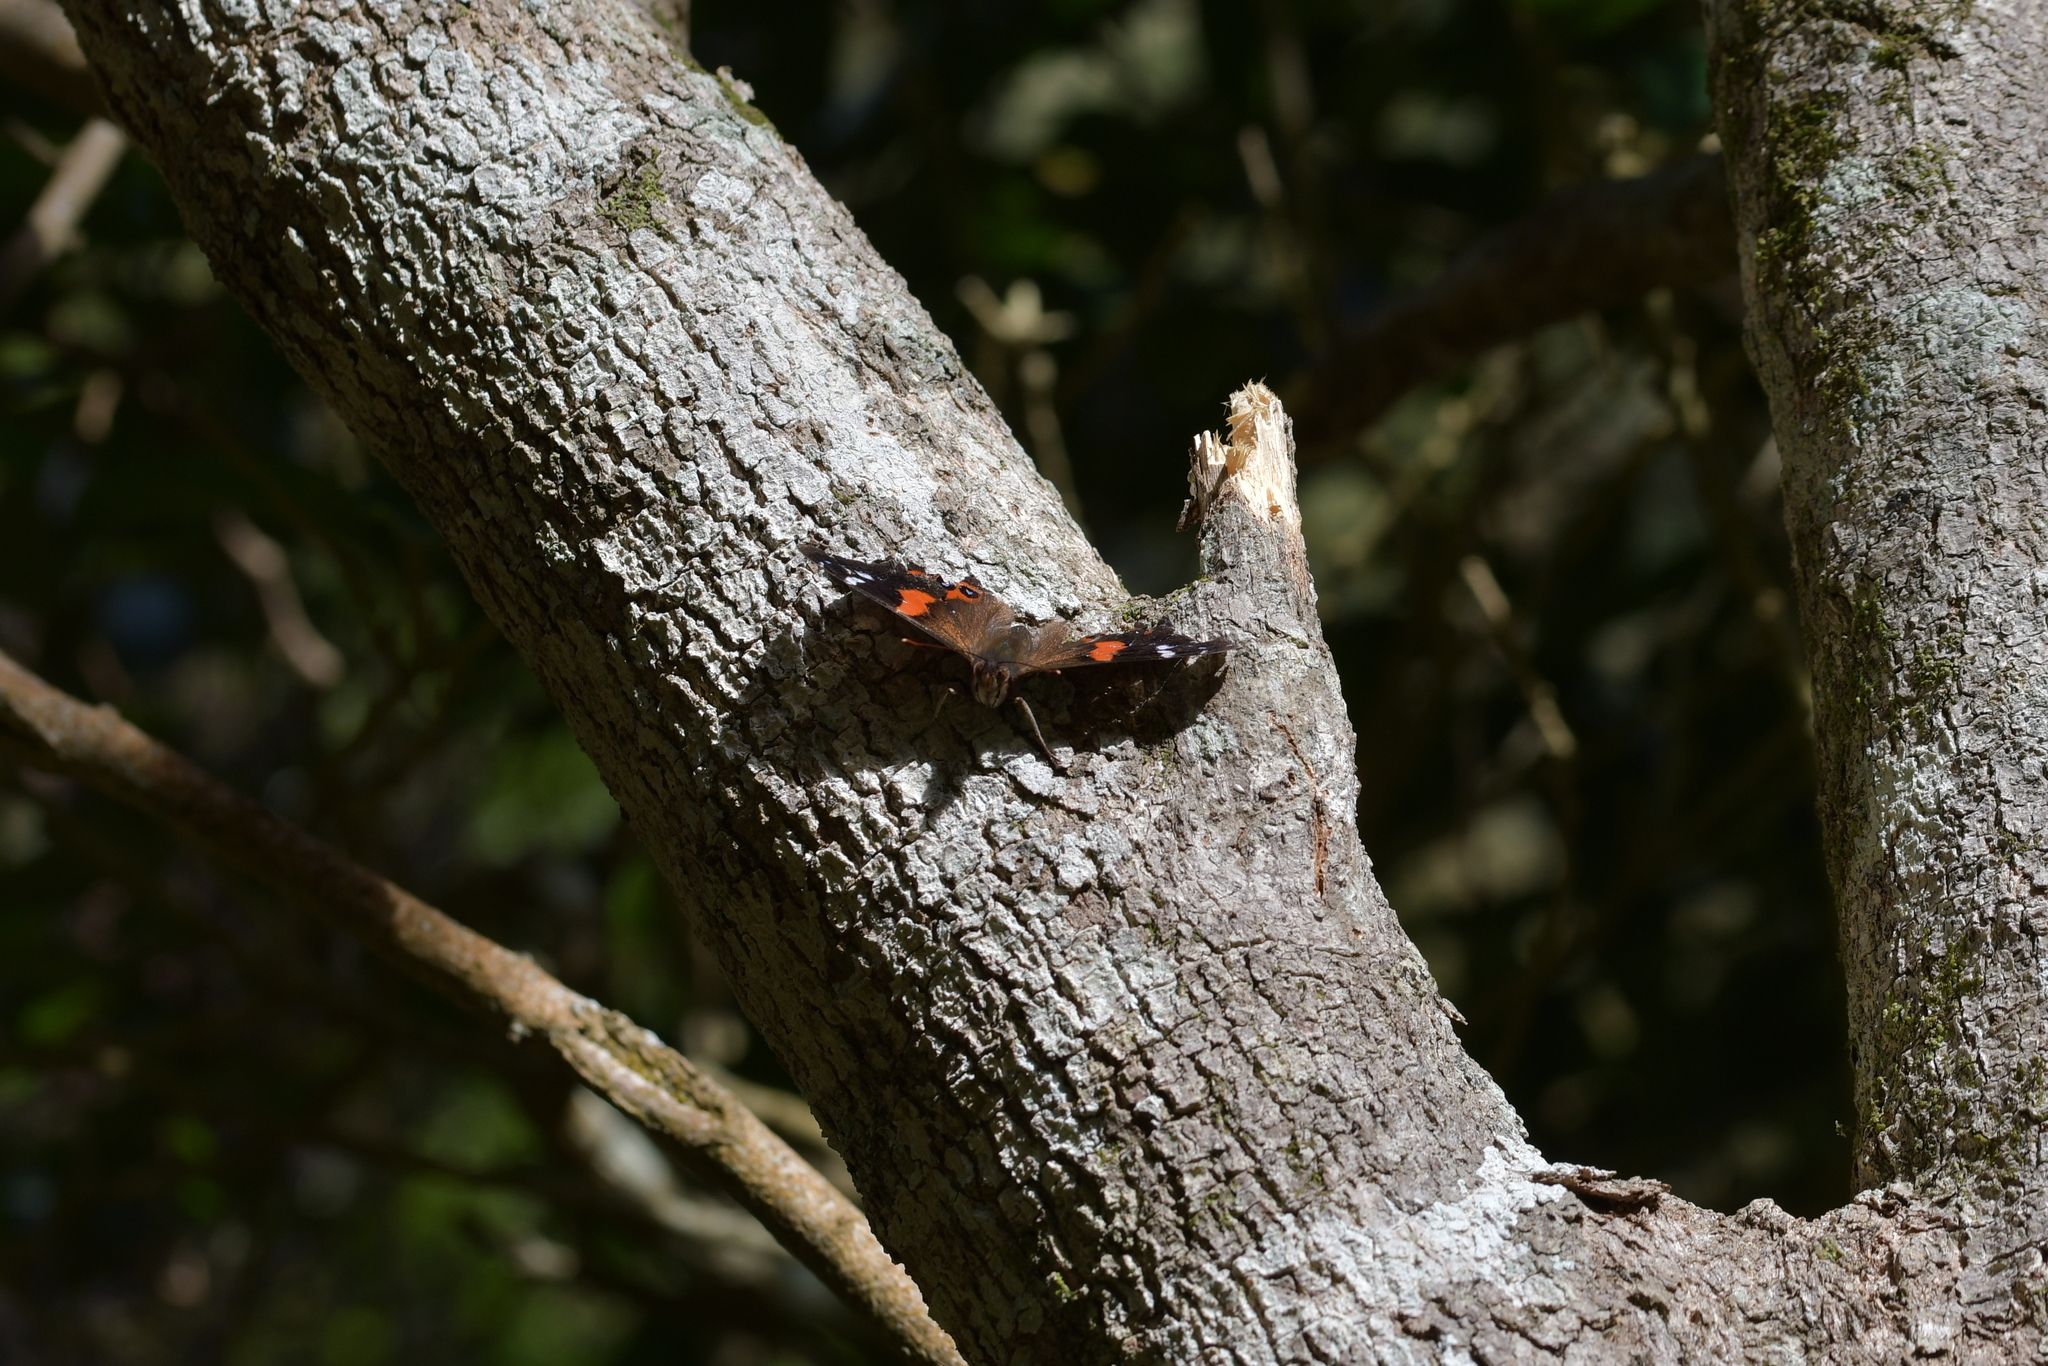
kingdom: Animalia
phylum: Arthropoda
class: Insecta
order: Lepidoptera
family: Nymphalidae
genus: Vanessa
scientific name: Vanessa gonerilla
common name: New zealand red admiral
